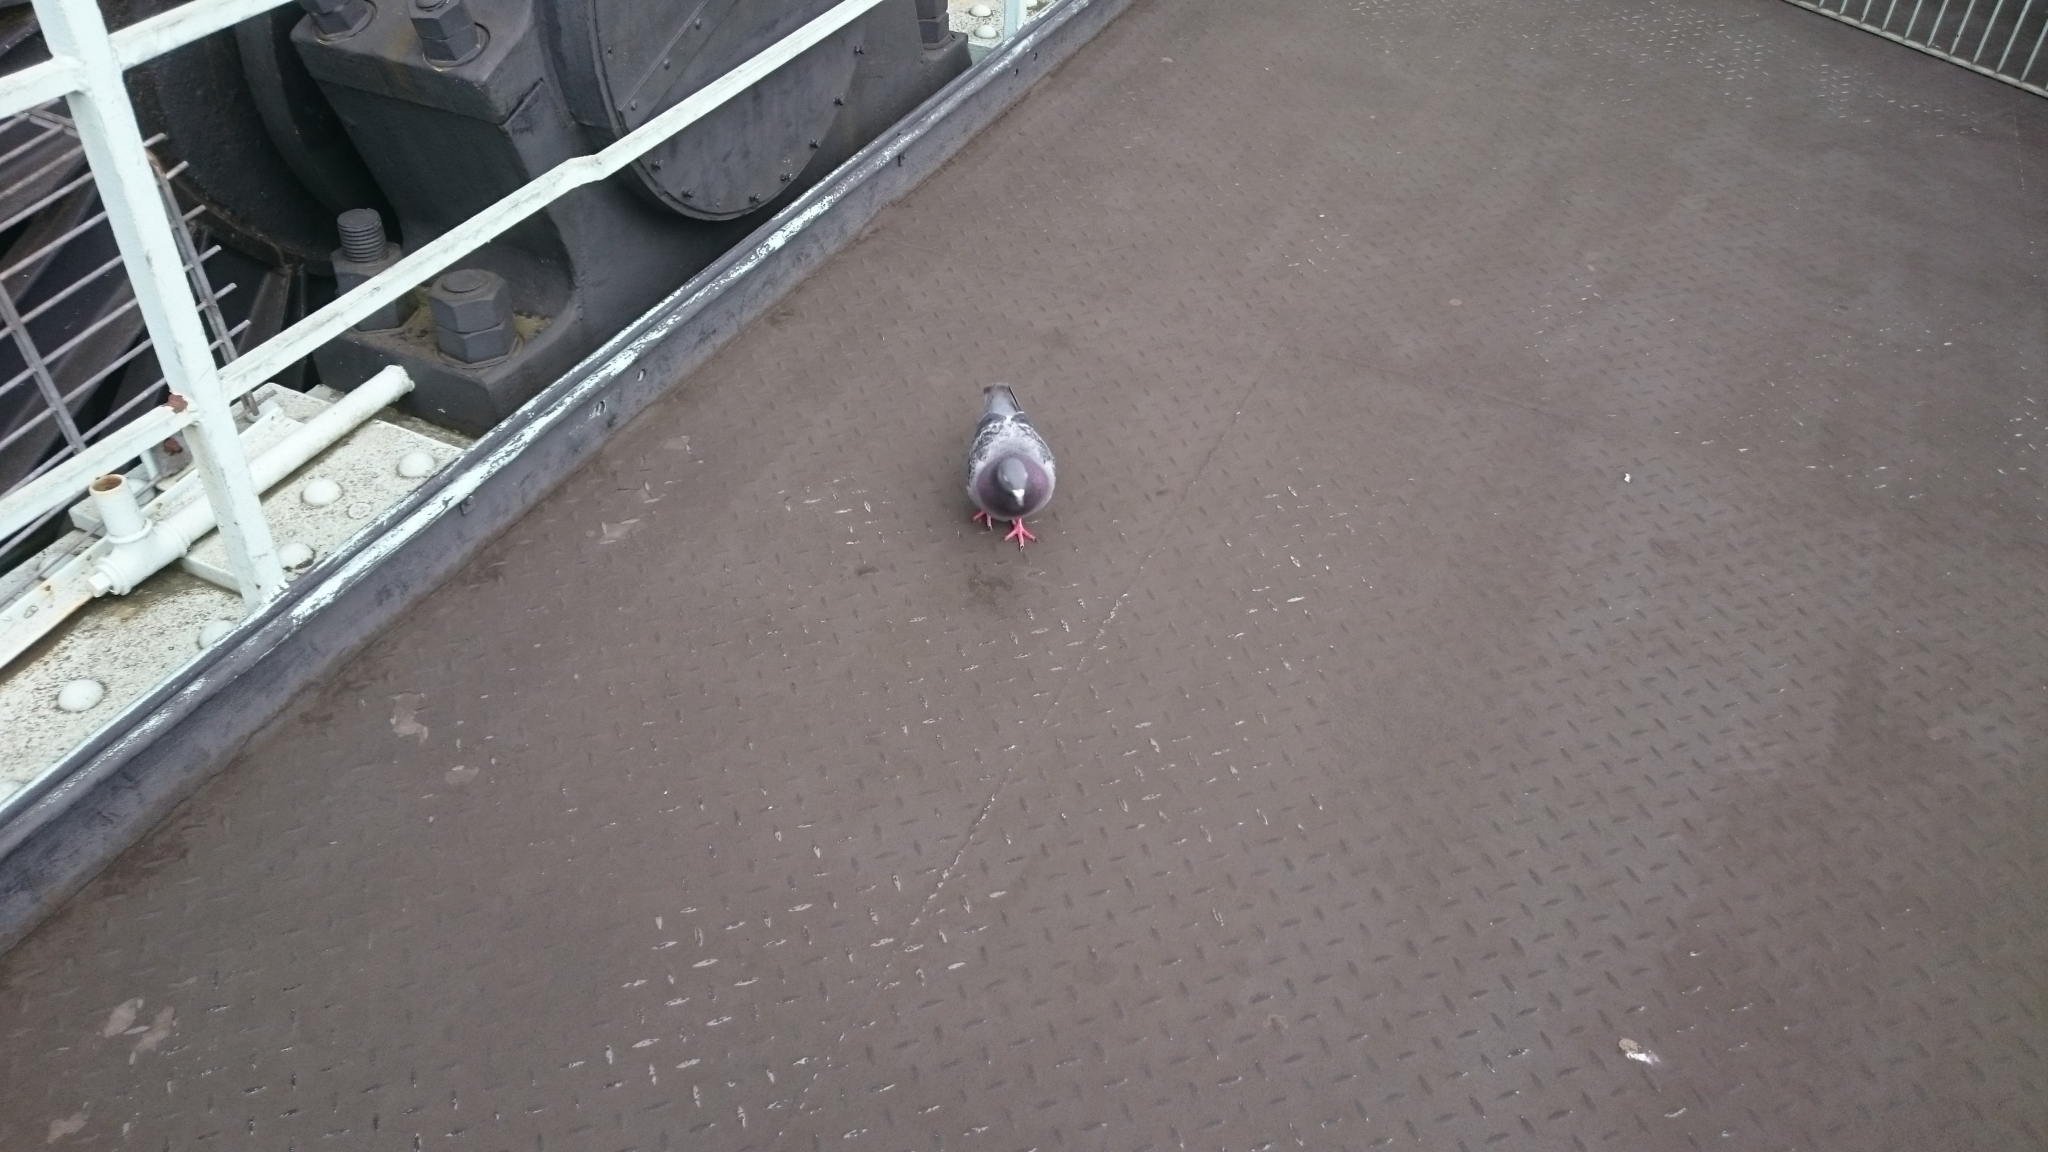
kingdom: Animalia
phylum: Chordata
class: Aves
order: Columbiformes
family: Columbidae
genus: Columba
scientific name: Columba livia
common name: Rock pigeon
